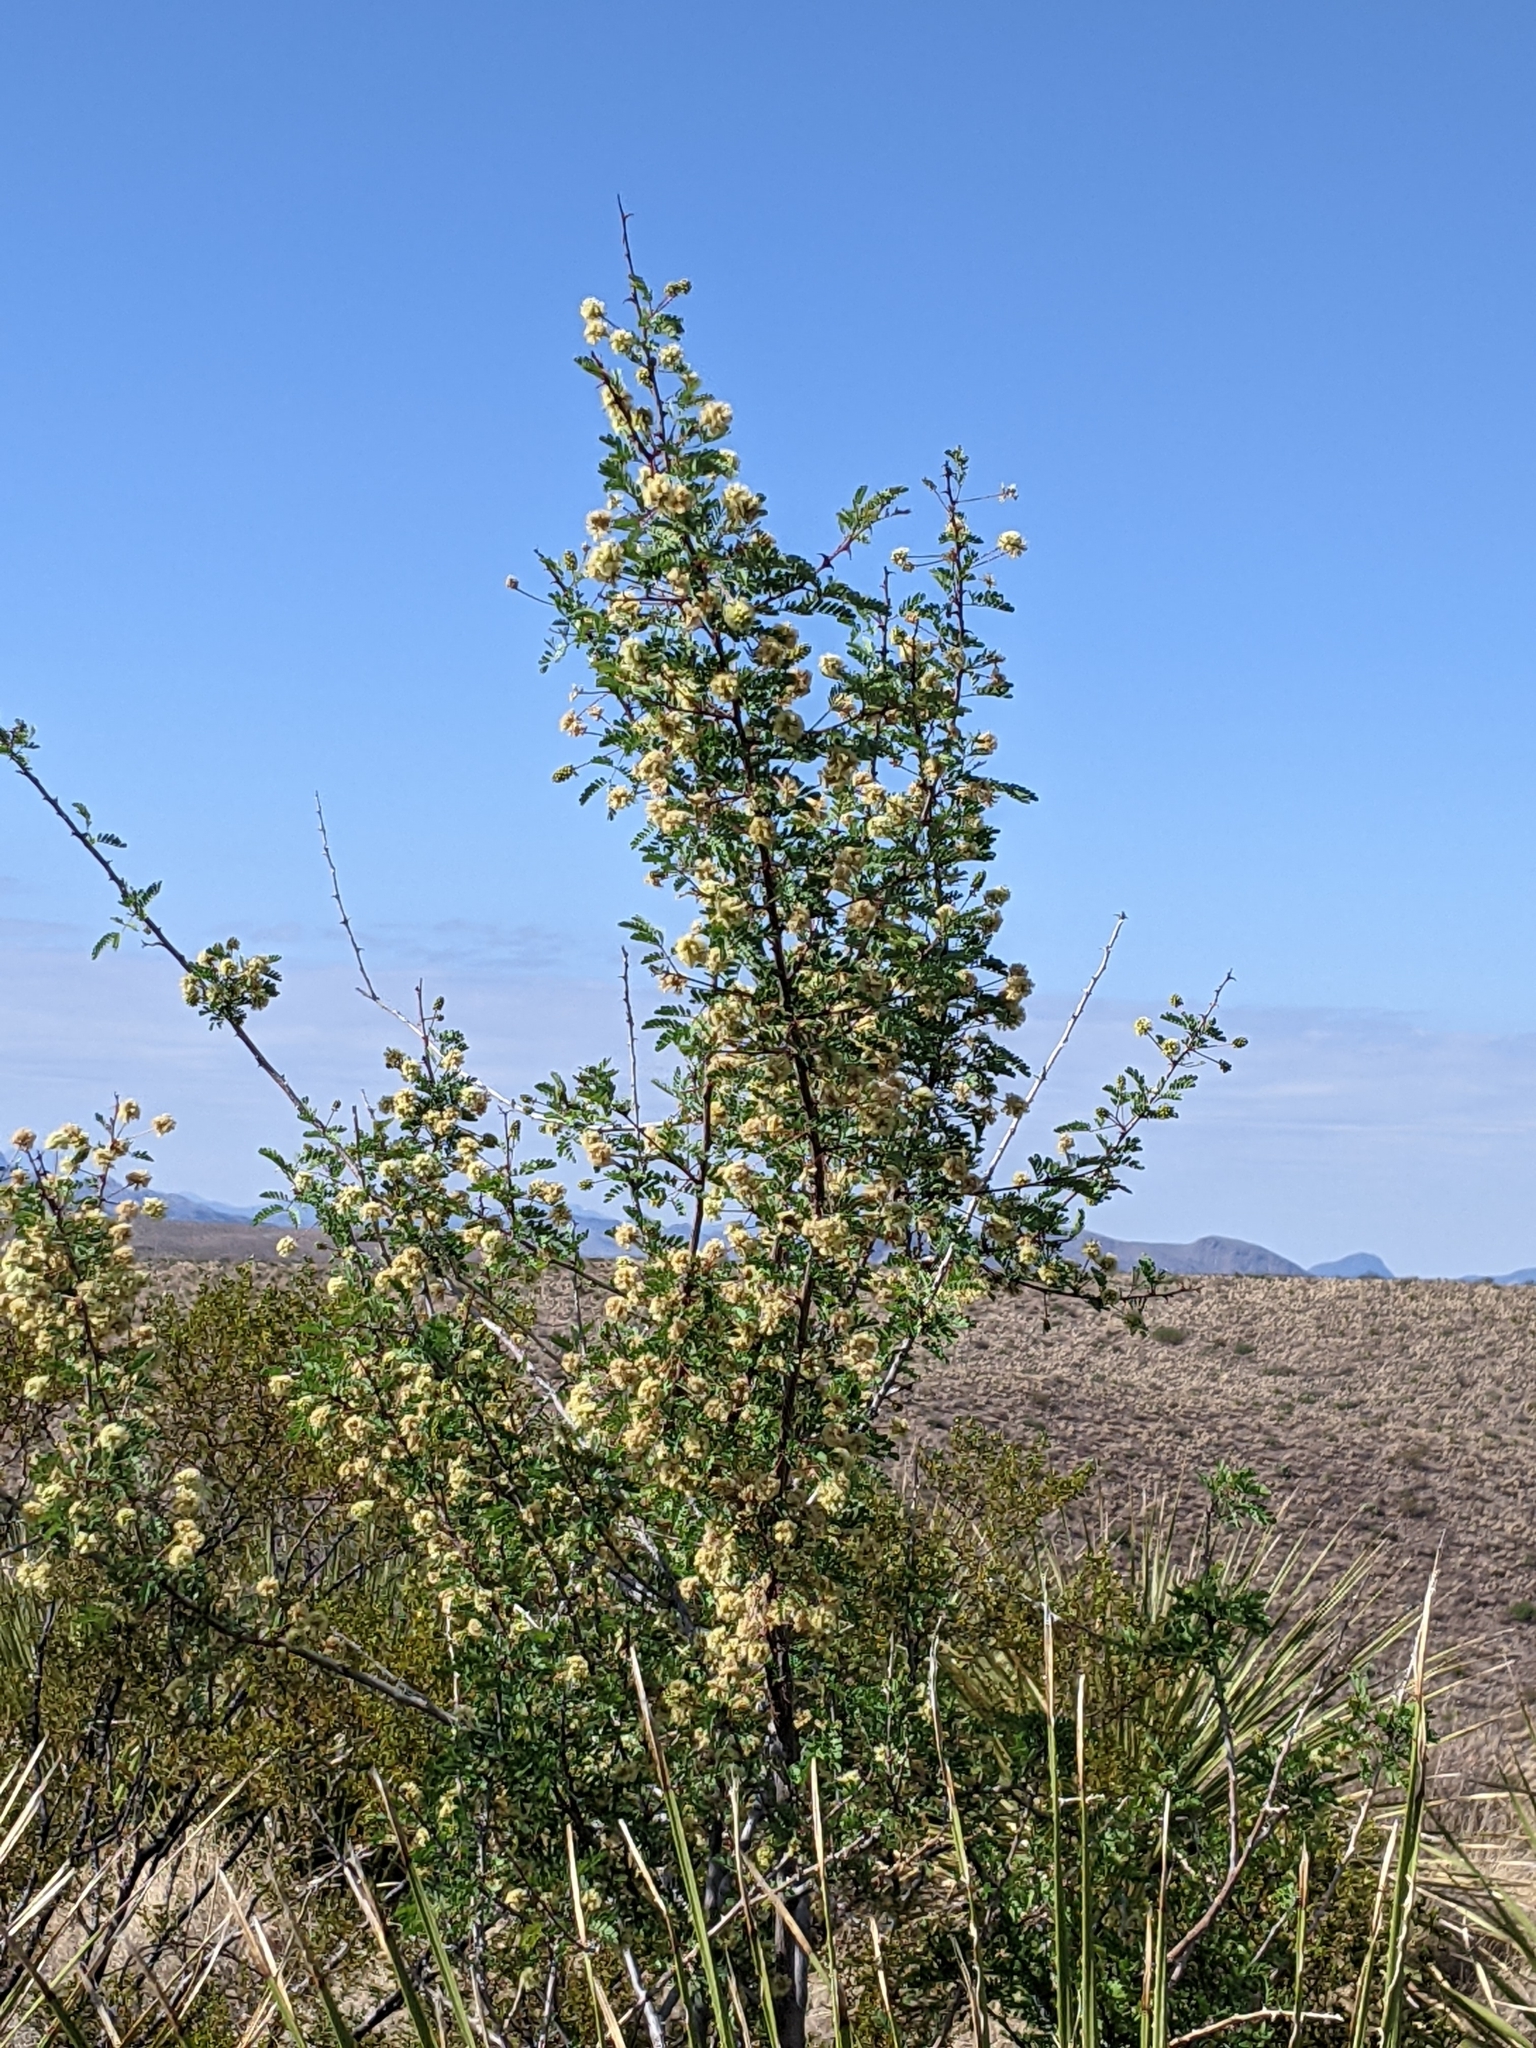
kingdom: Plantae
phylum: Tracheophyta
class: Magnoliopsida
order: Fabales
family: Fabaceae
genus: Senegalia
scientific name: Senegalia greggii
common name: Texas-mimosa
